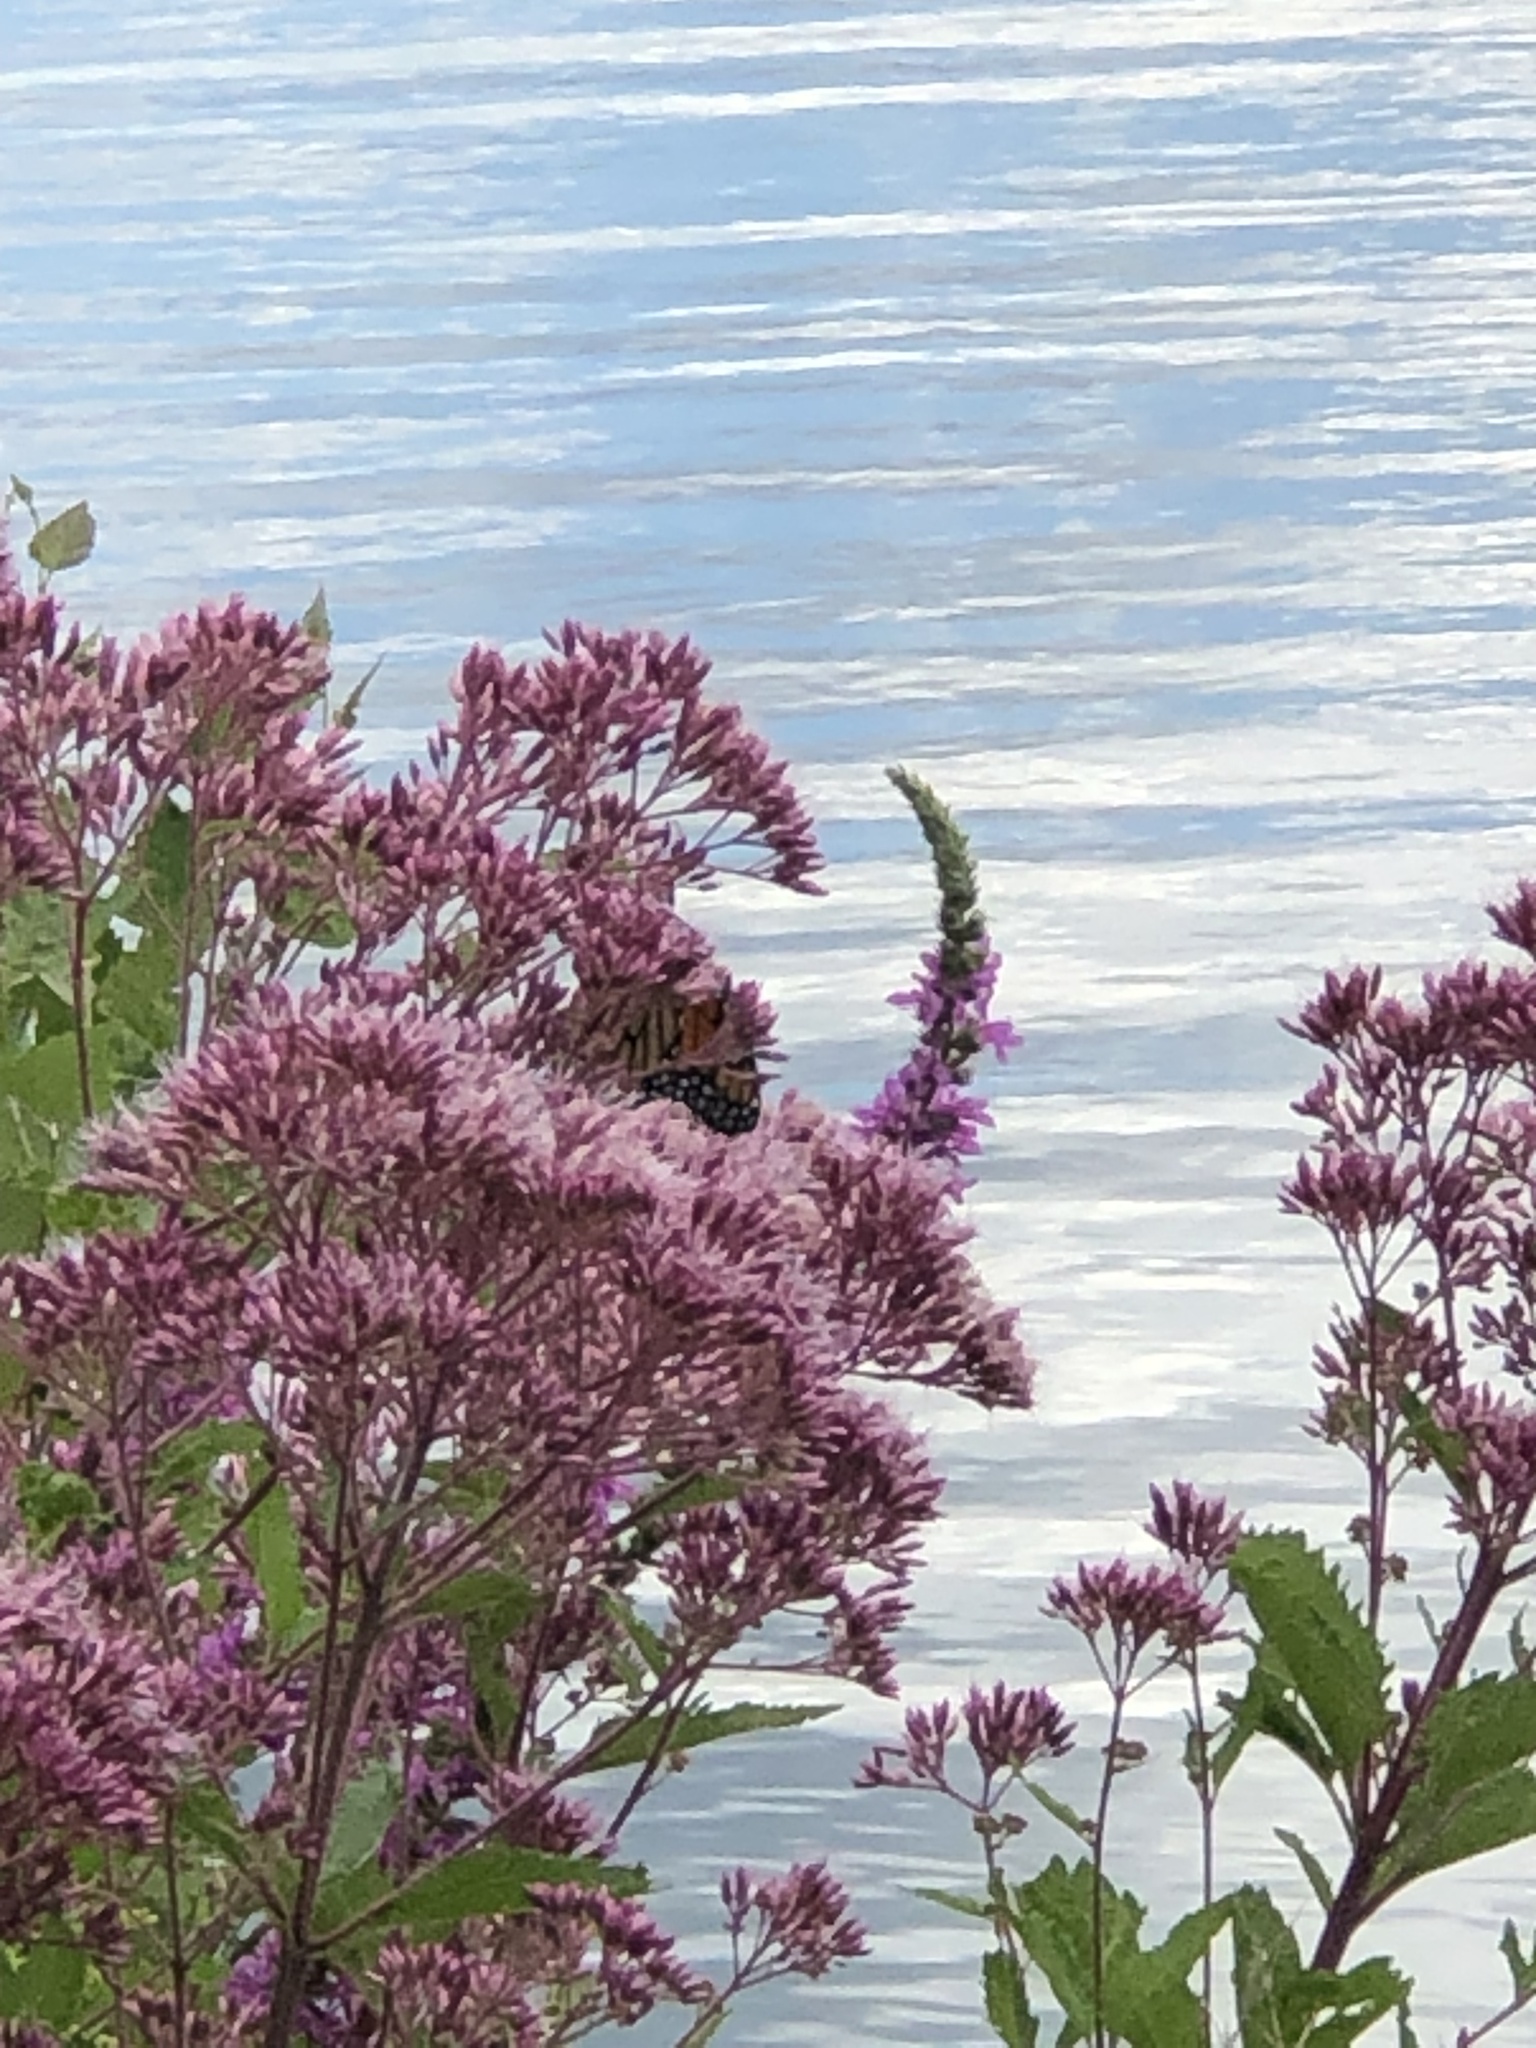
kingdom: Animalia
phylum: Arthropoda
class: Insecta
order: Lepidoptera
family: Nymphalidae
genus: Danaus
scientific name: Danaus plexippus
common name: Monarch
